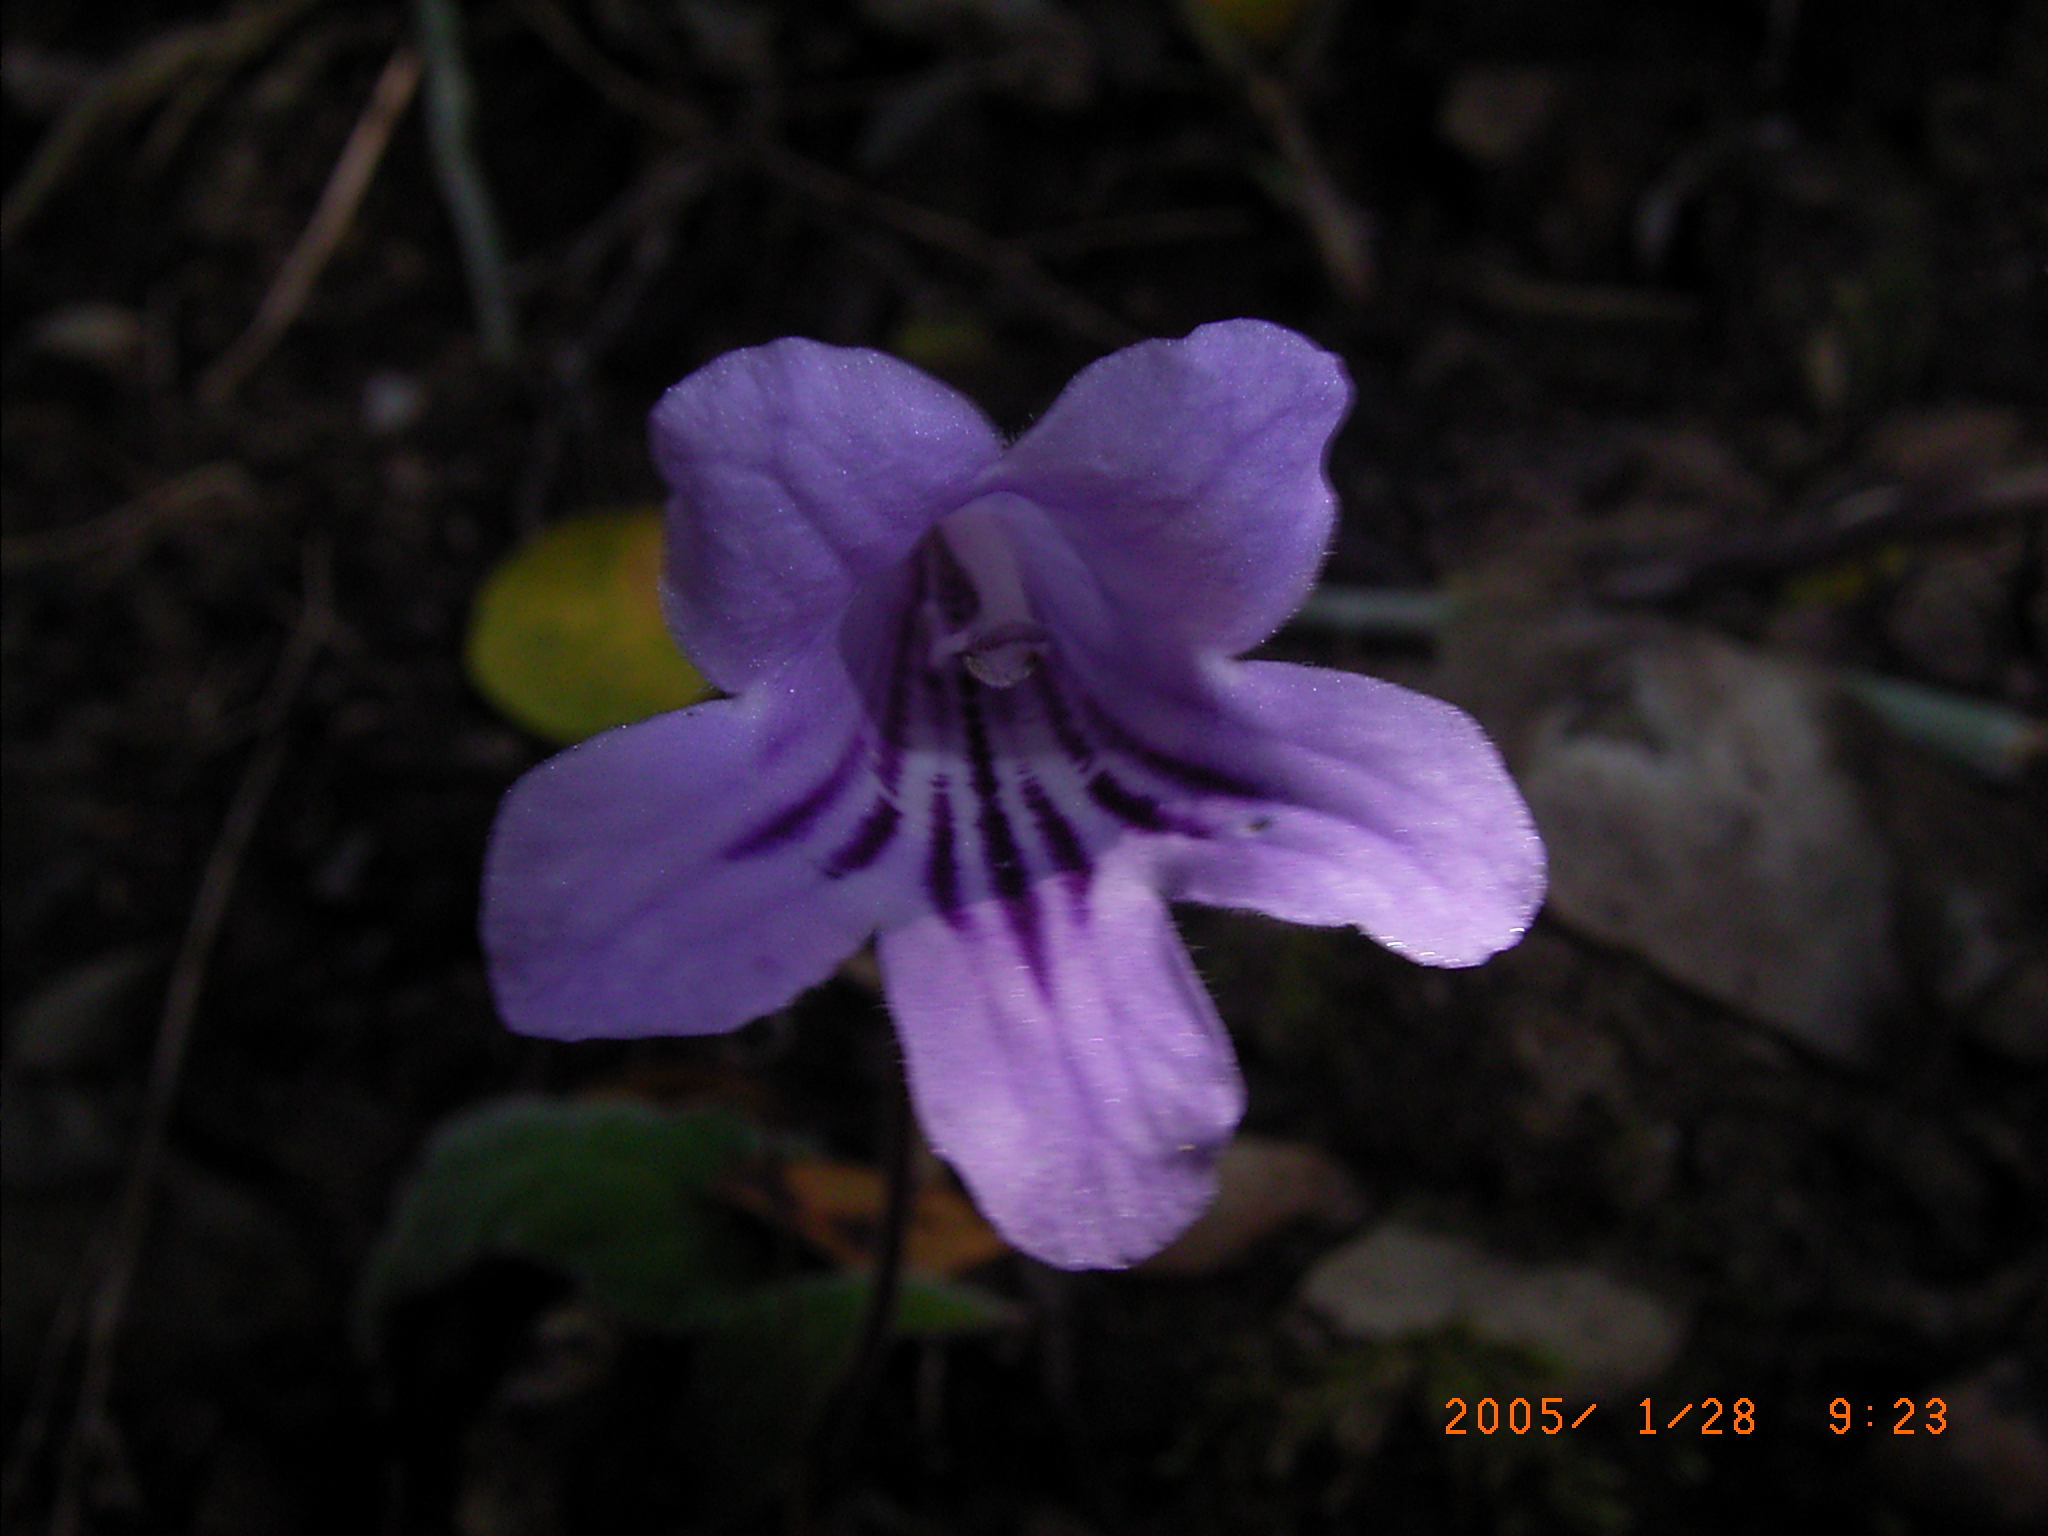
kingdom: Plantae
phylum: Tracheophyta
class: Magnoliopsida
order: Lamiales
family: Gesneriaceae
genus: Streptocarpus
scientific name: Streptocarpus rexii
